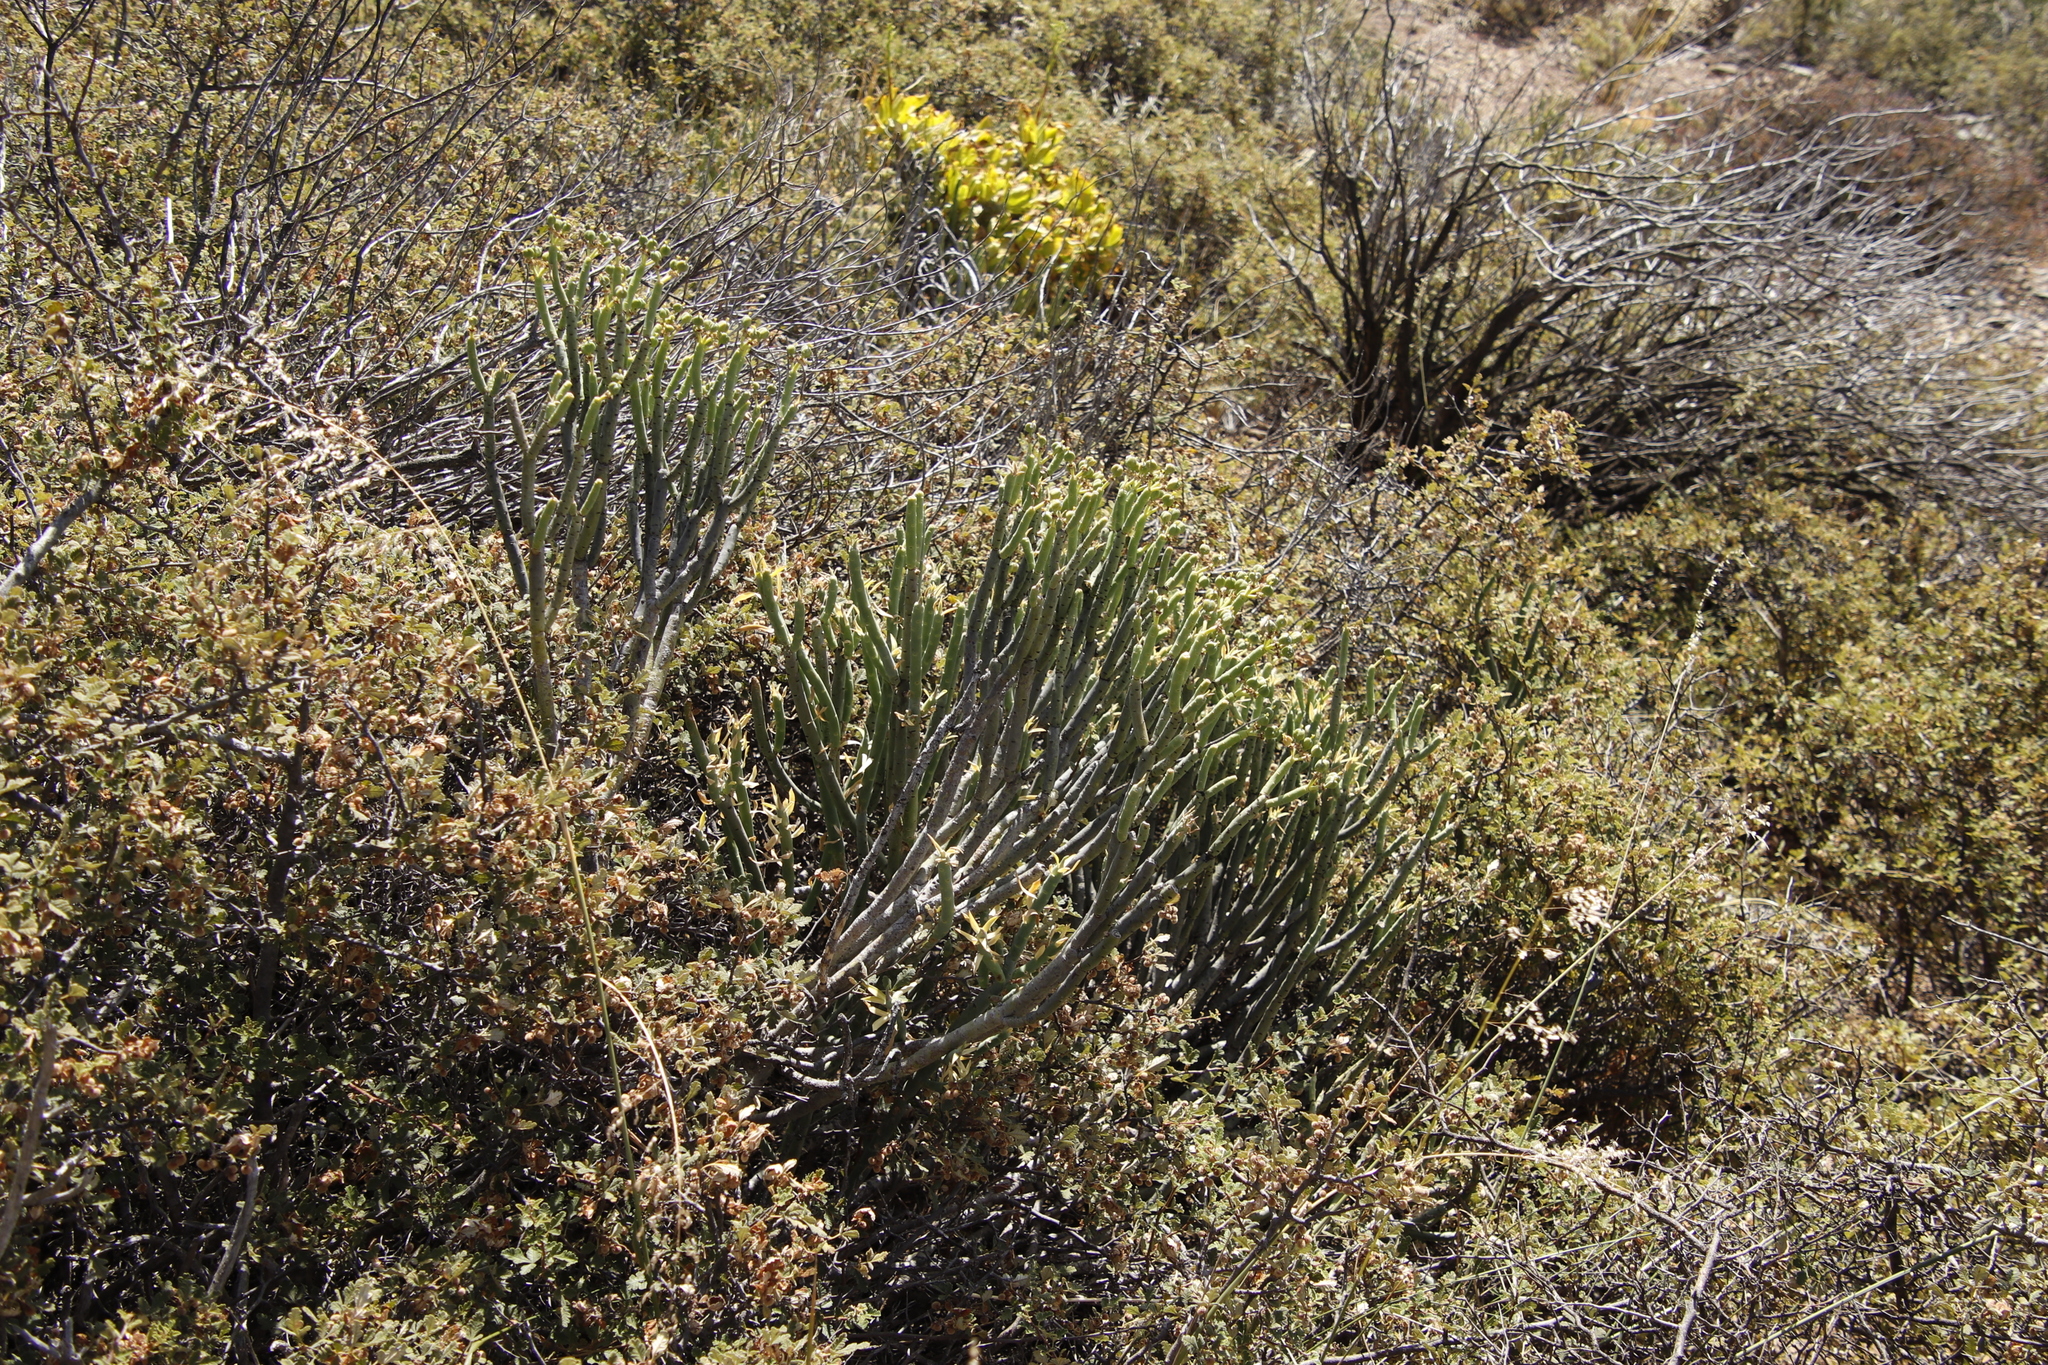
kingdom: Plantae
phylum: Tracheophyta
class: Magnoliopsida
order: Malpighiales
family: Euphorbiaceae
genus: Euphorbia
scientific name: Euphorbia mauritanica
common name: Jackal's-food
